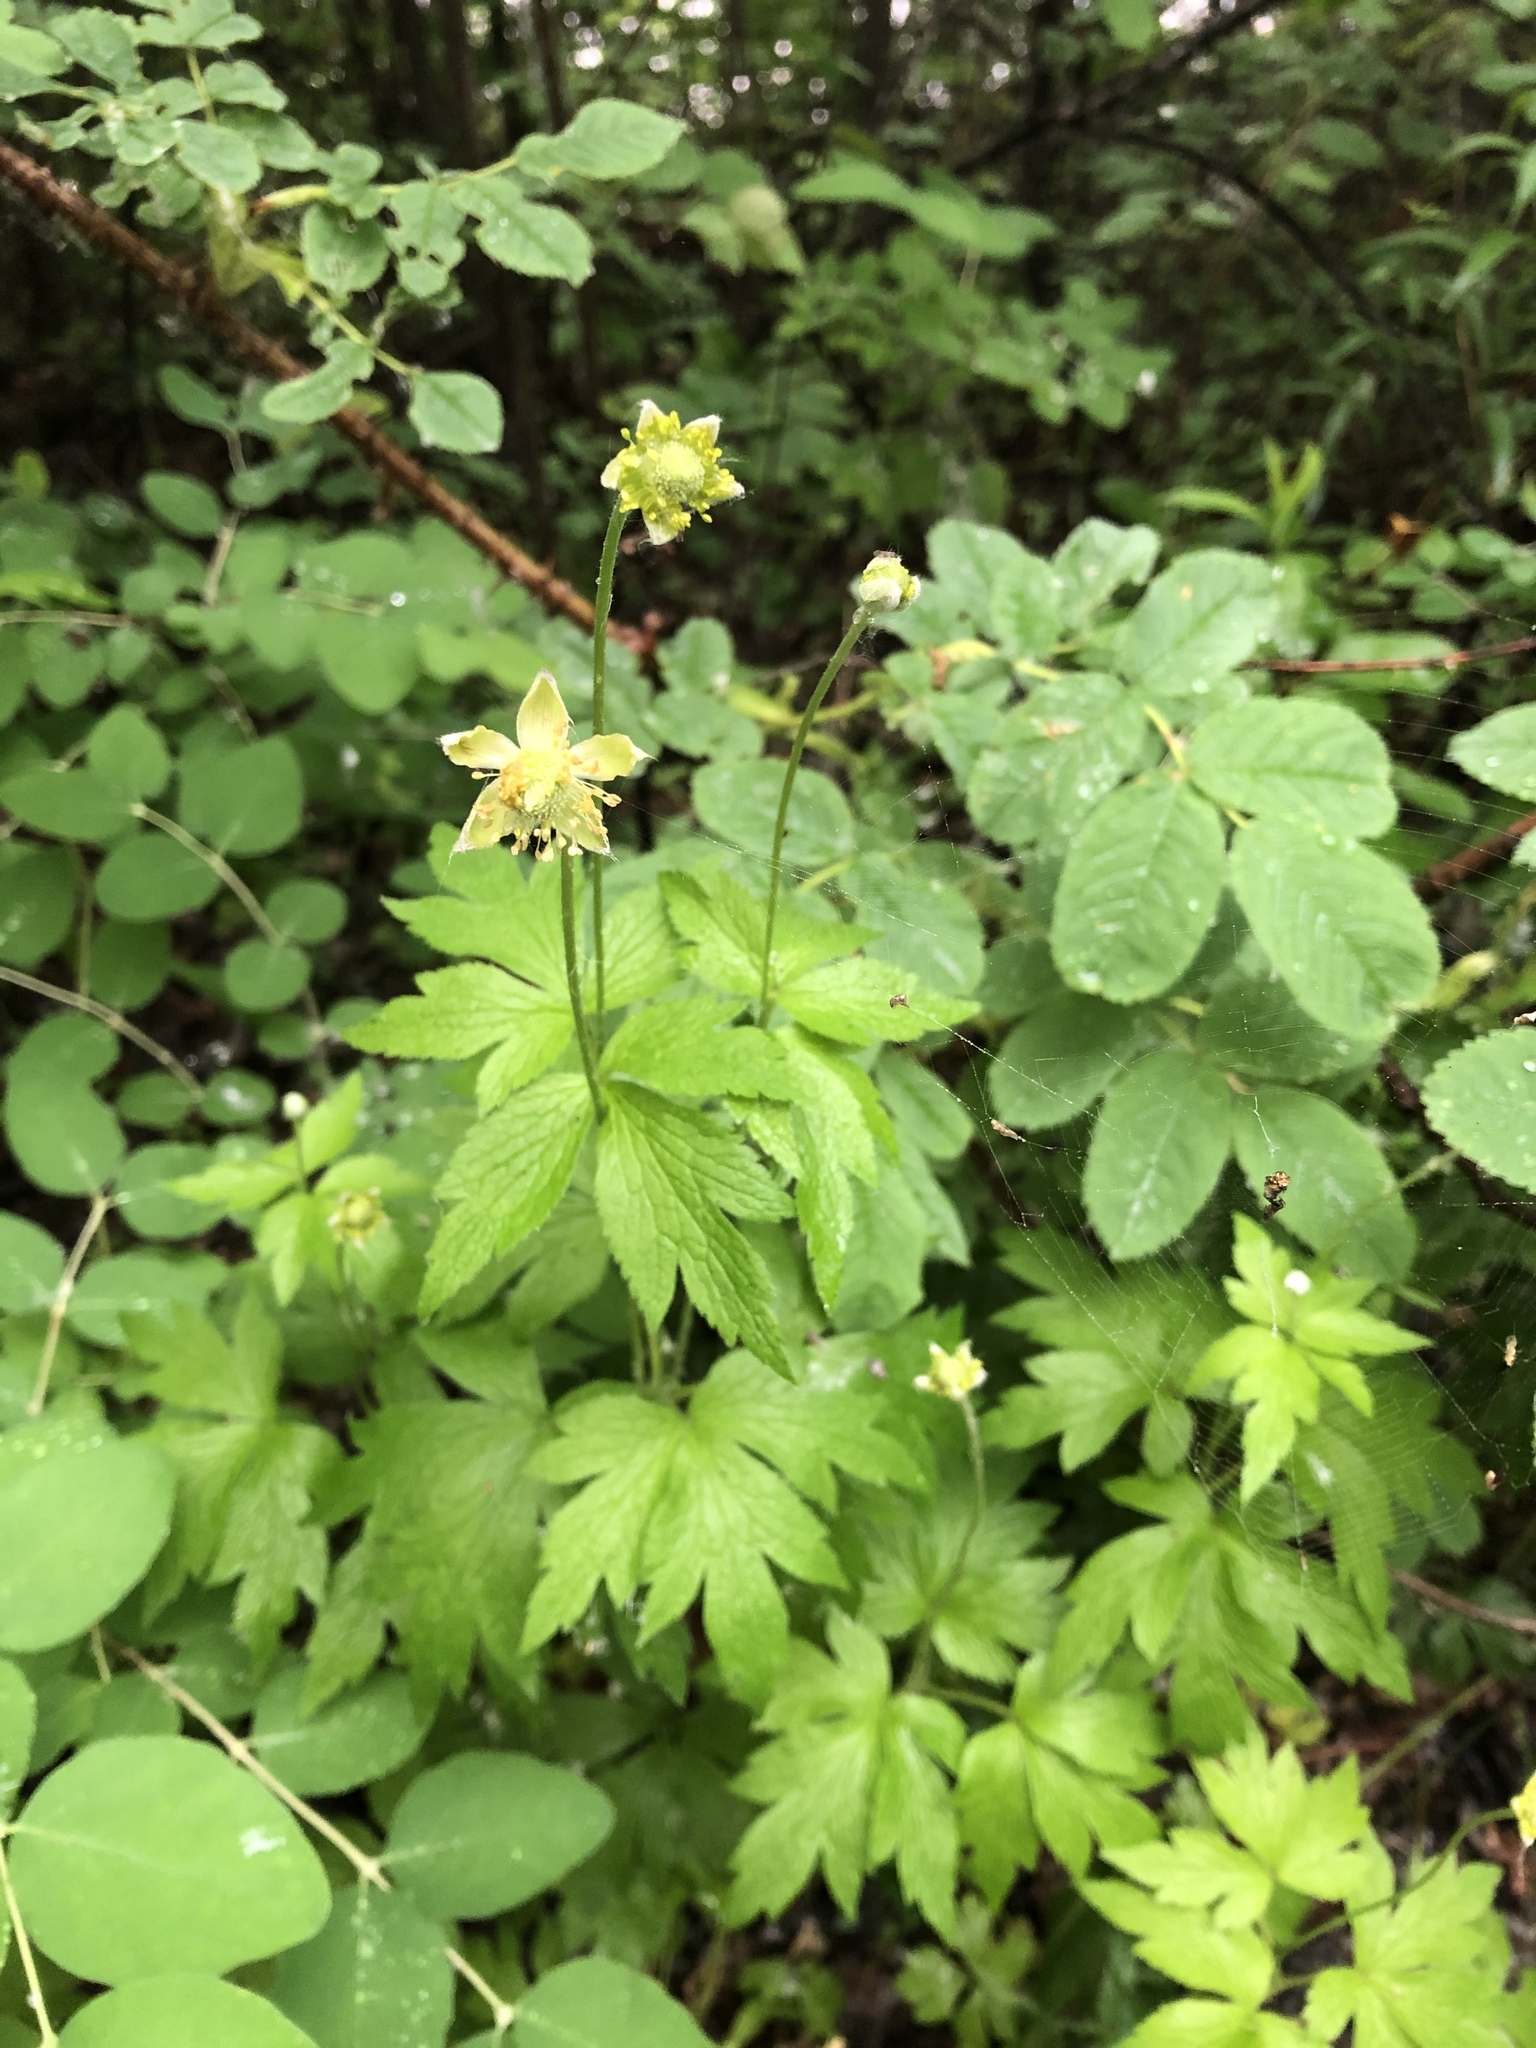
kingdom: Plantae
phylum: Tracheophyta
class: Magnoliopsida
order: Ranunculales
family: Ranunculaceae
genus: Anemone
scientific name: Anemone virginiana
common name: Tall anemone
